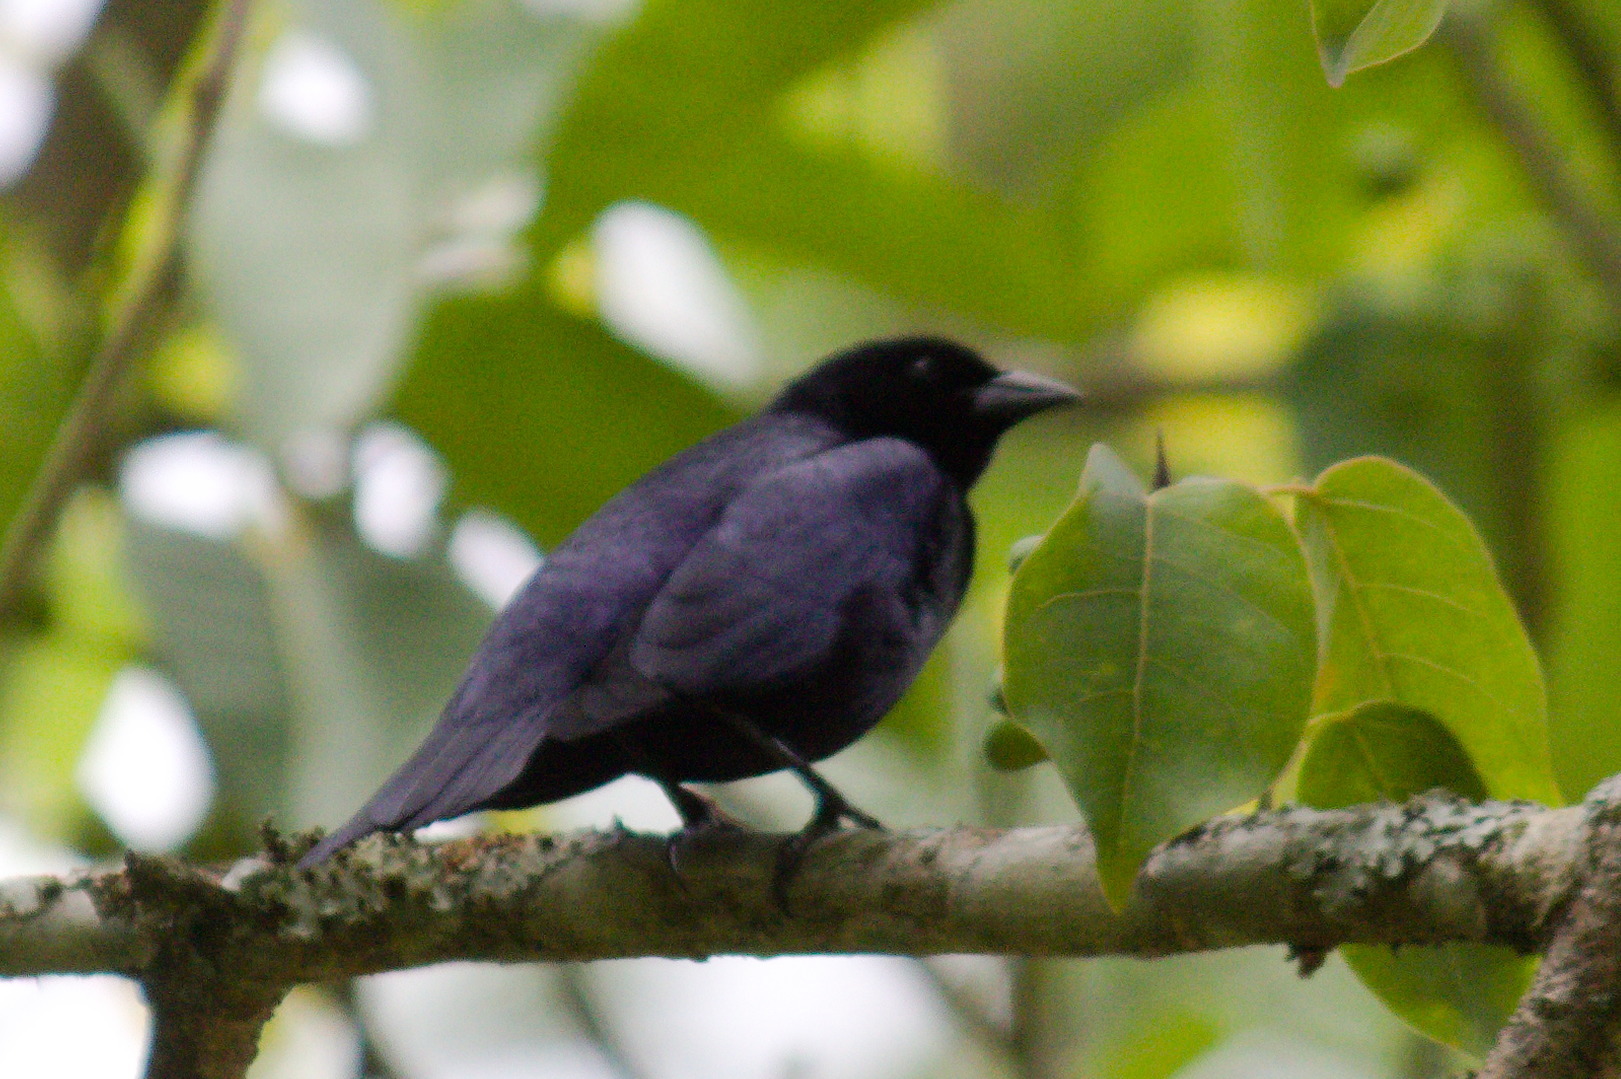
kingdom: Animalia
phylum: Chordata
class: Aves
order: Passeriformes
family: Icteridae
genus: Molothrus
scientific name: Molothrus bonariensis
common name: Shiny cowbird
